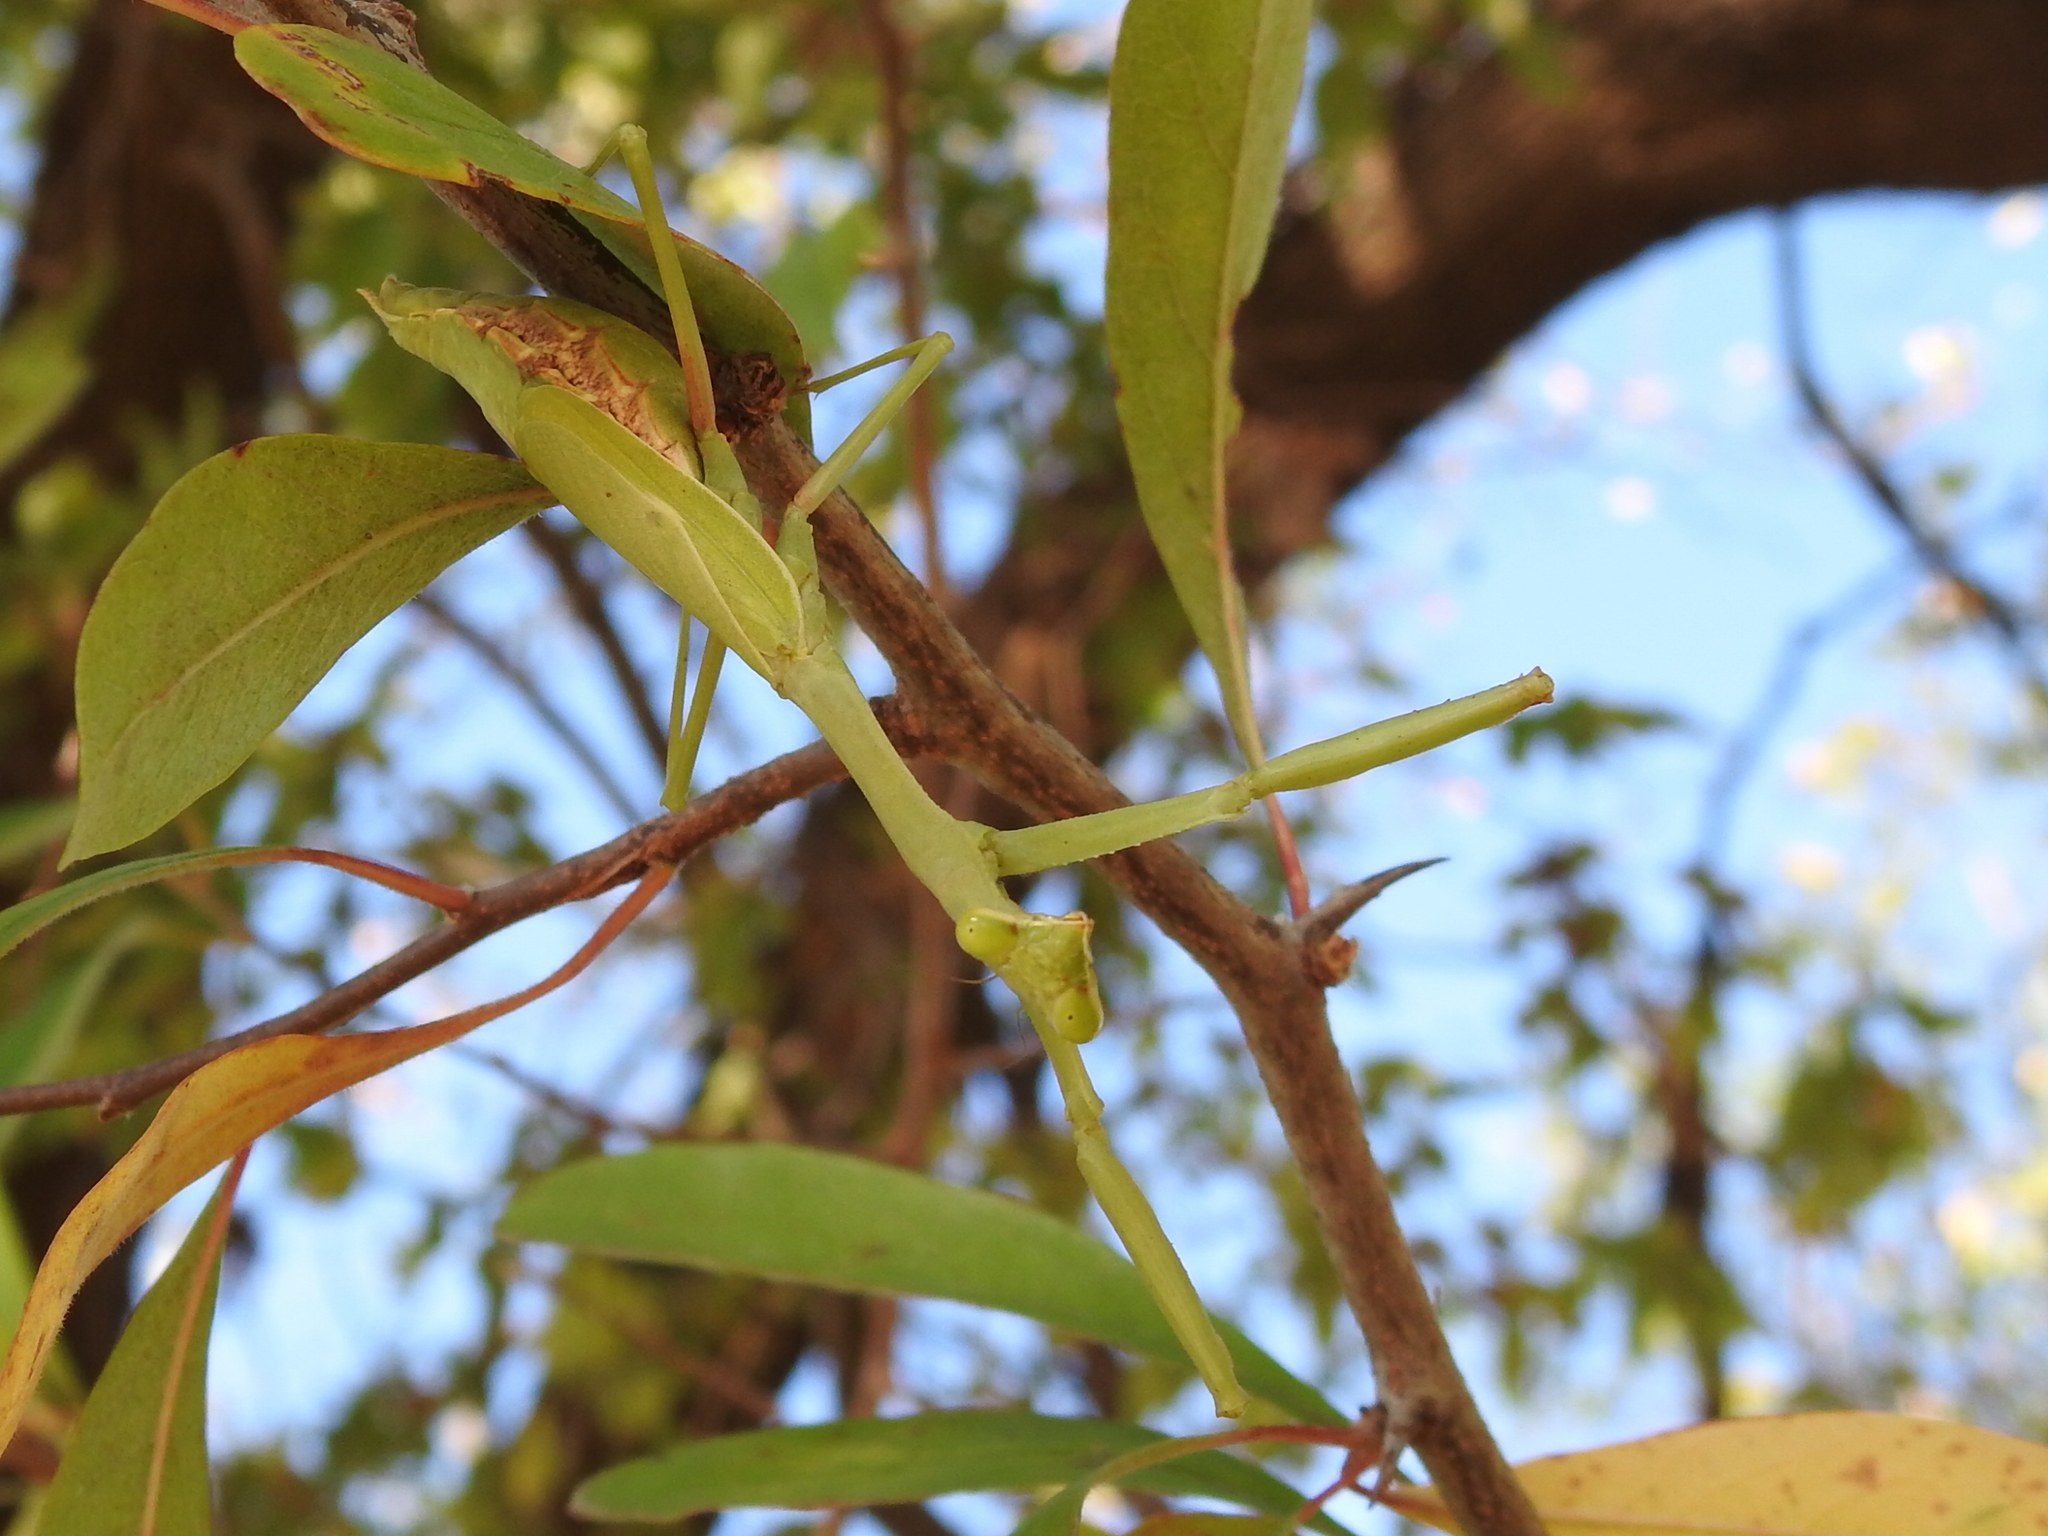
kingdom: Animalia
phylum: Arthropoda
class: Insecta
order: Mantodea
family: Mantidae
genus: Stagmomantis
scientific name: Stagmomantis carolina
